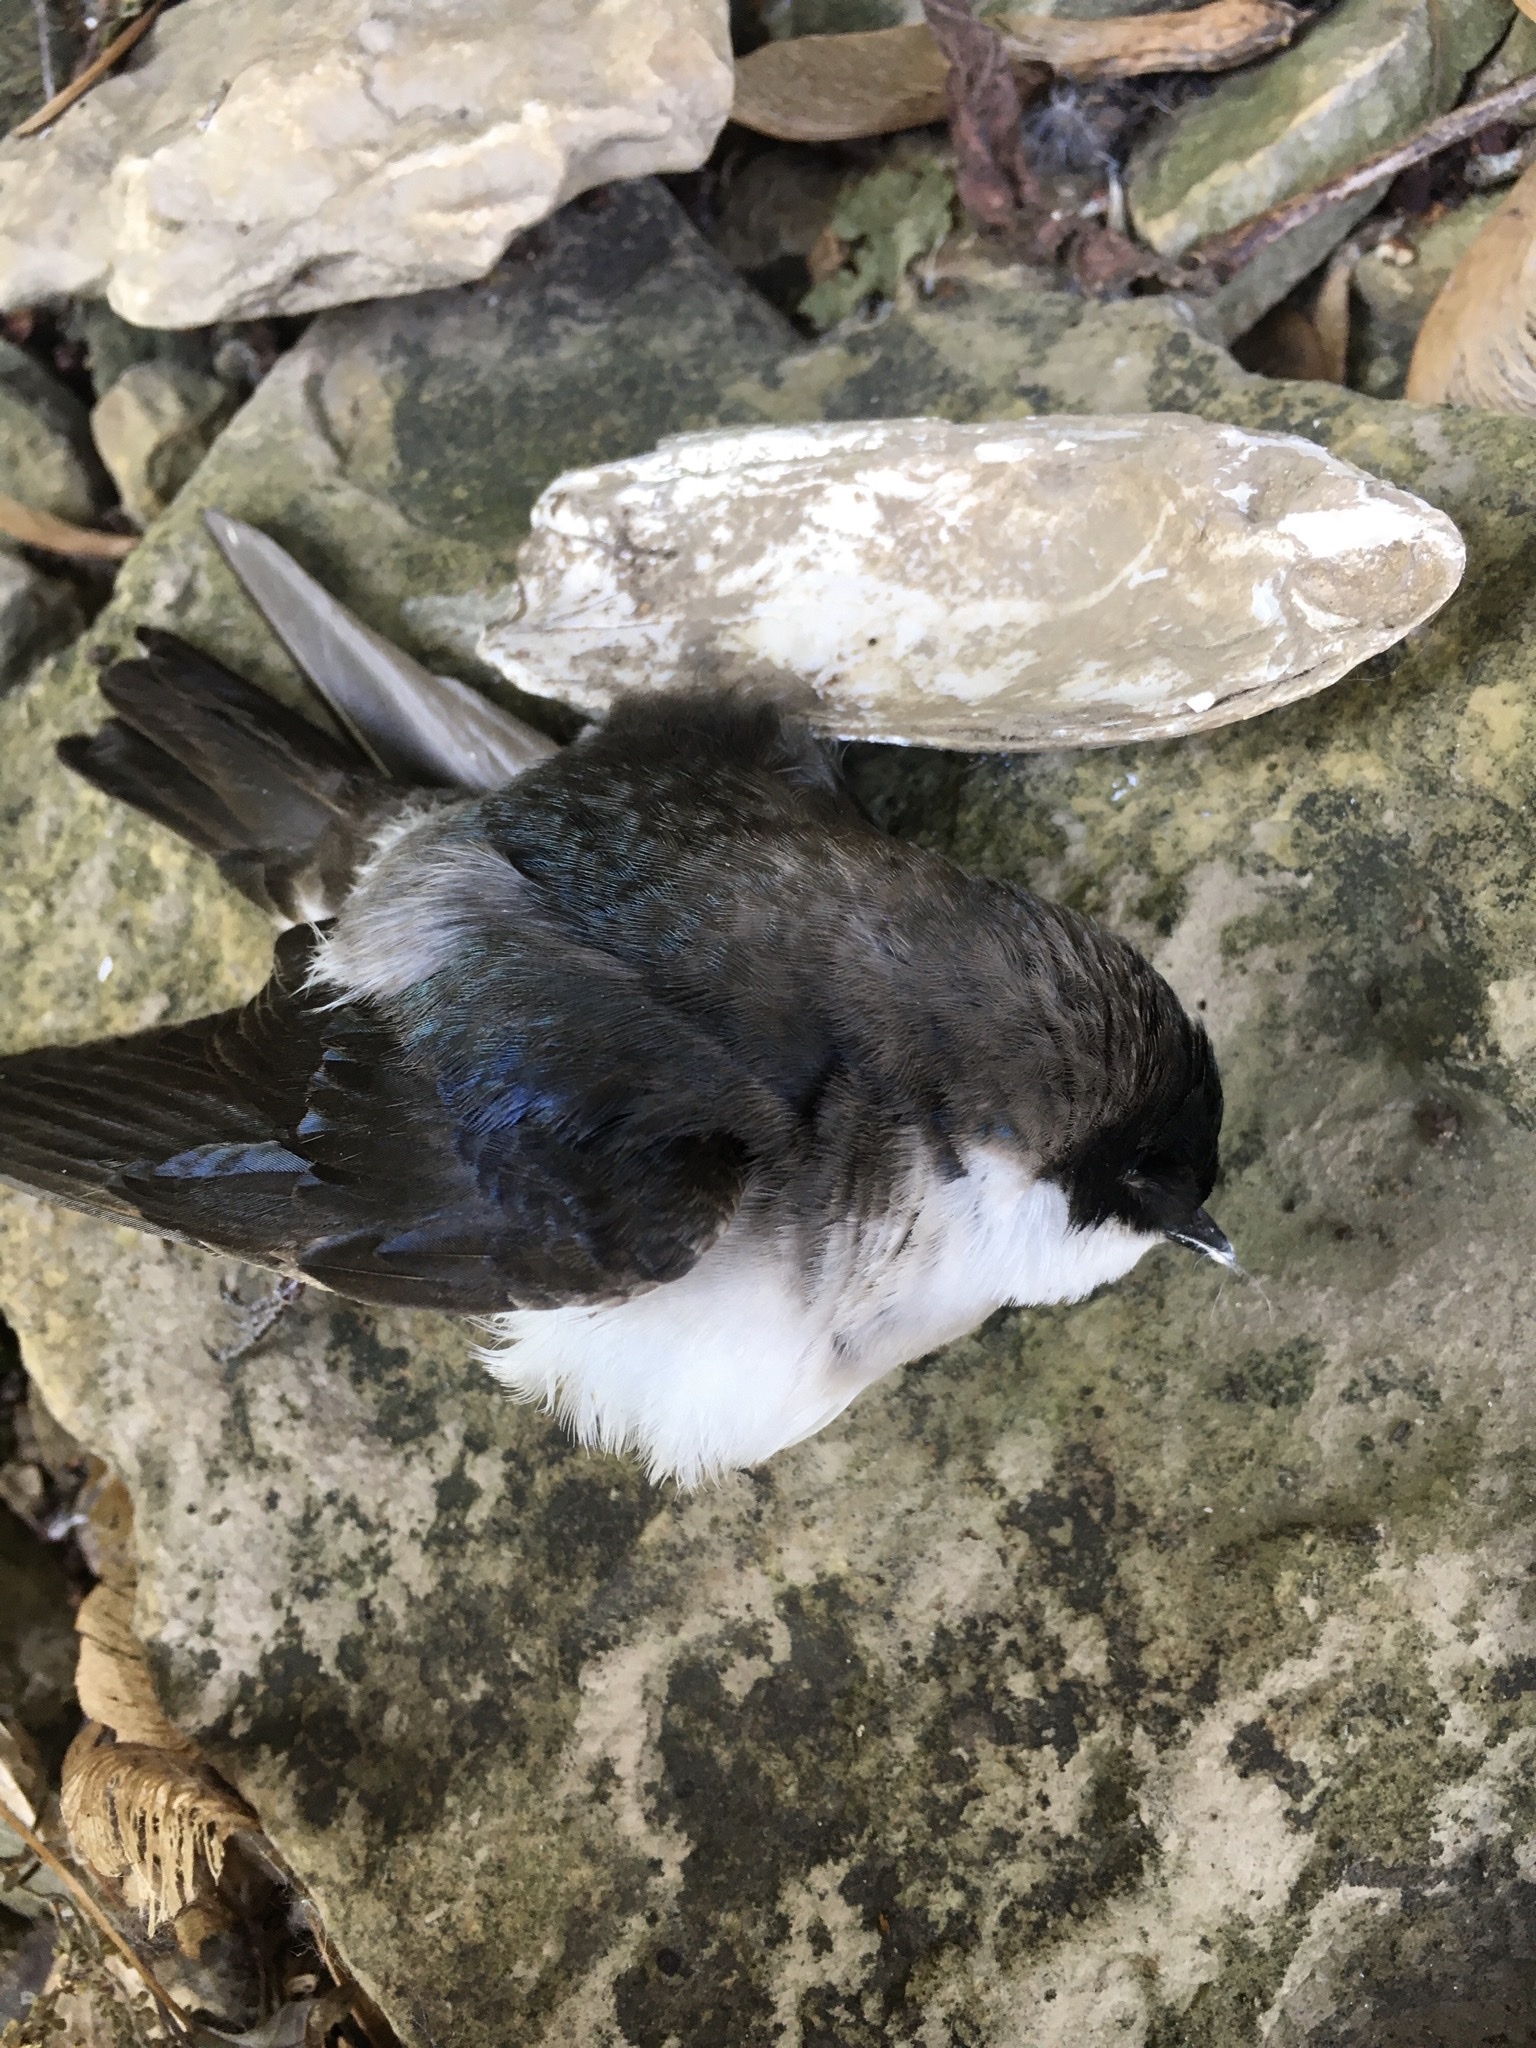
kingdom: Animalia
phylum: Chordata
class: Aves
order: Passeriformes
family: Hirundinidae
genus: Tachycineta
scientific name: Tachycineta bicolor
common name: Tree swallow
